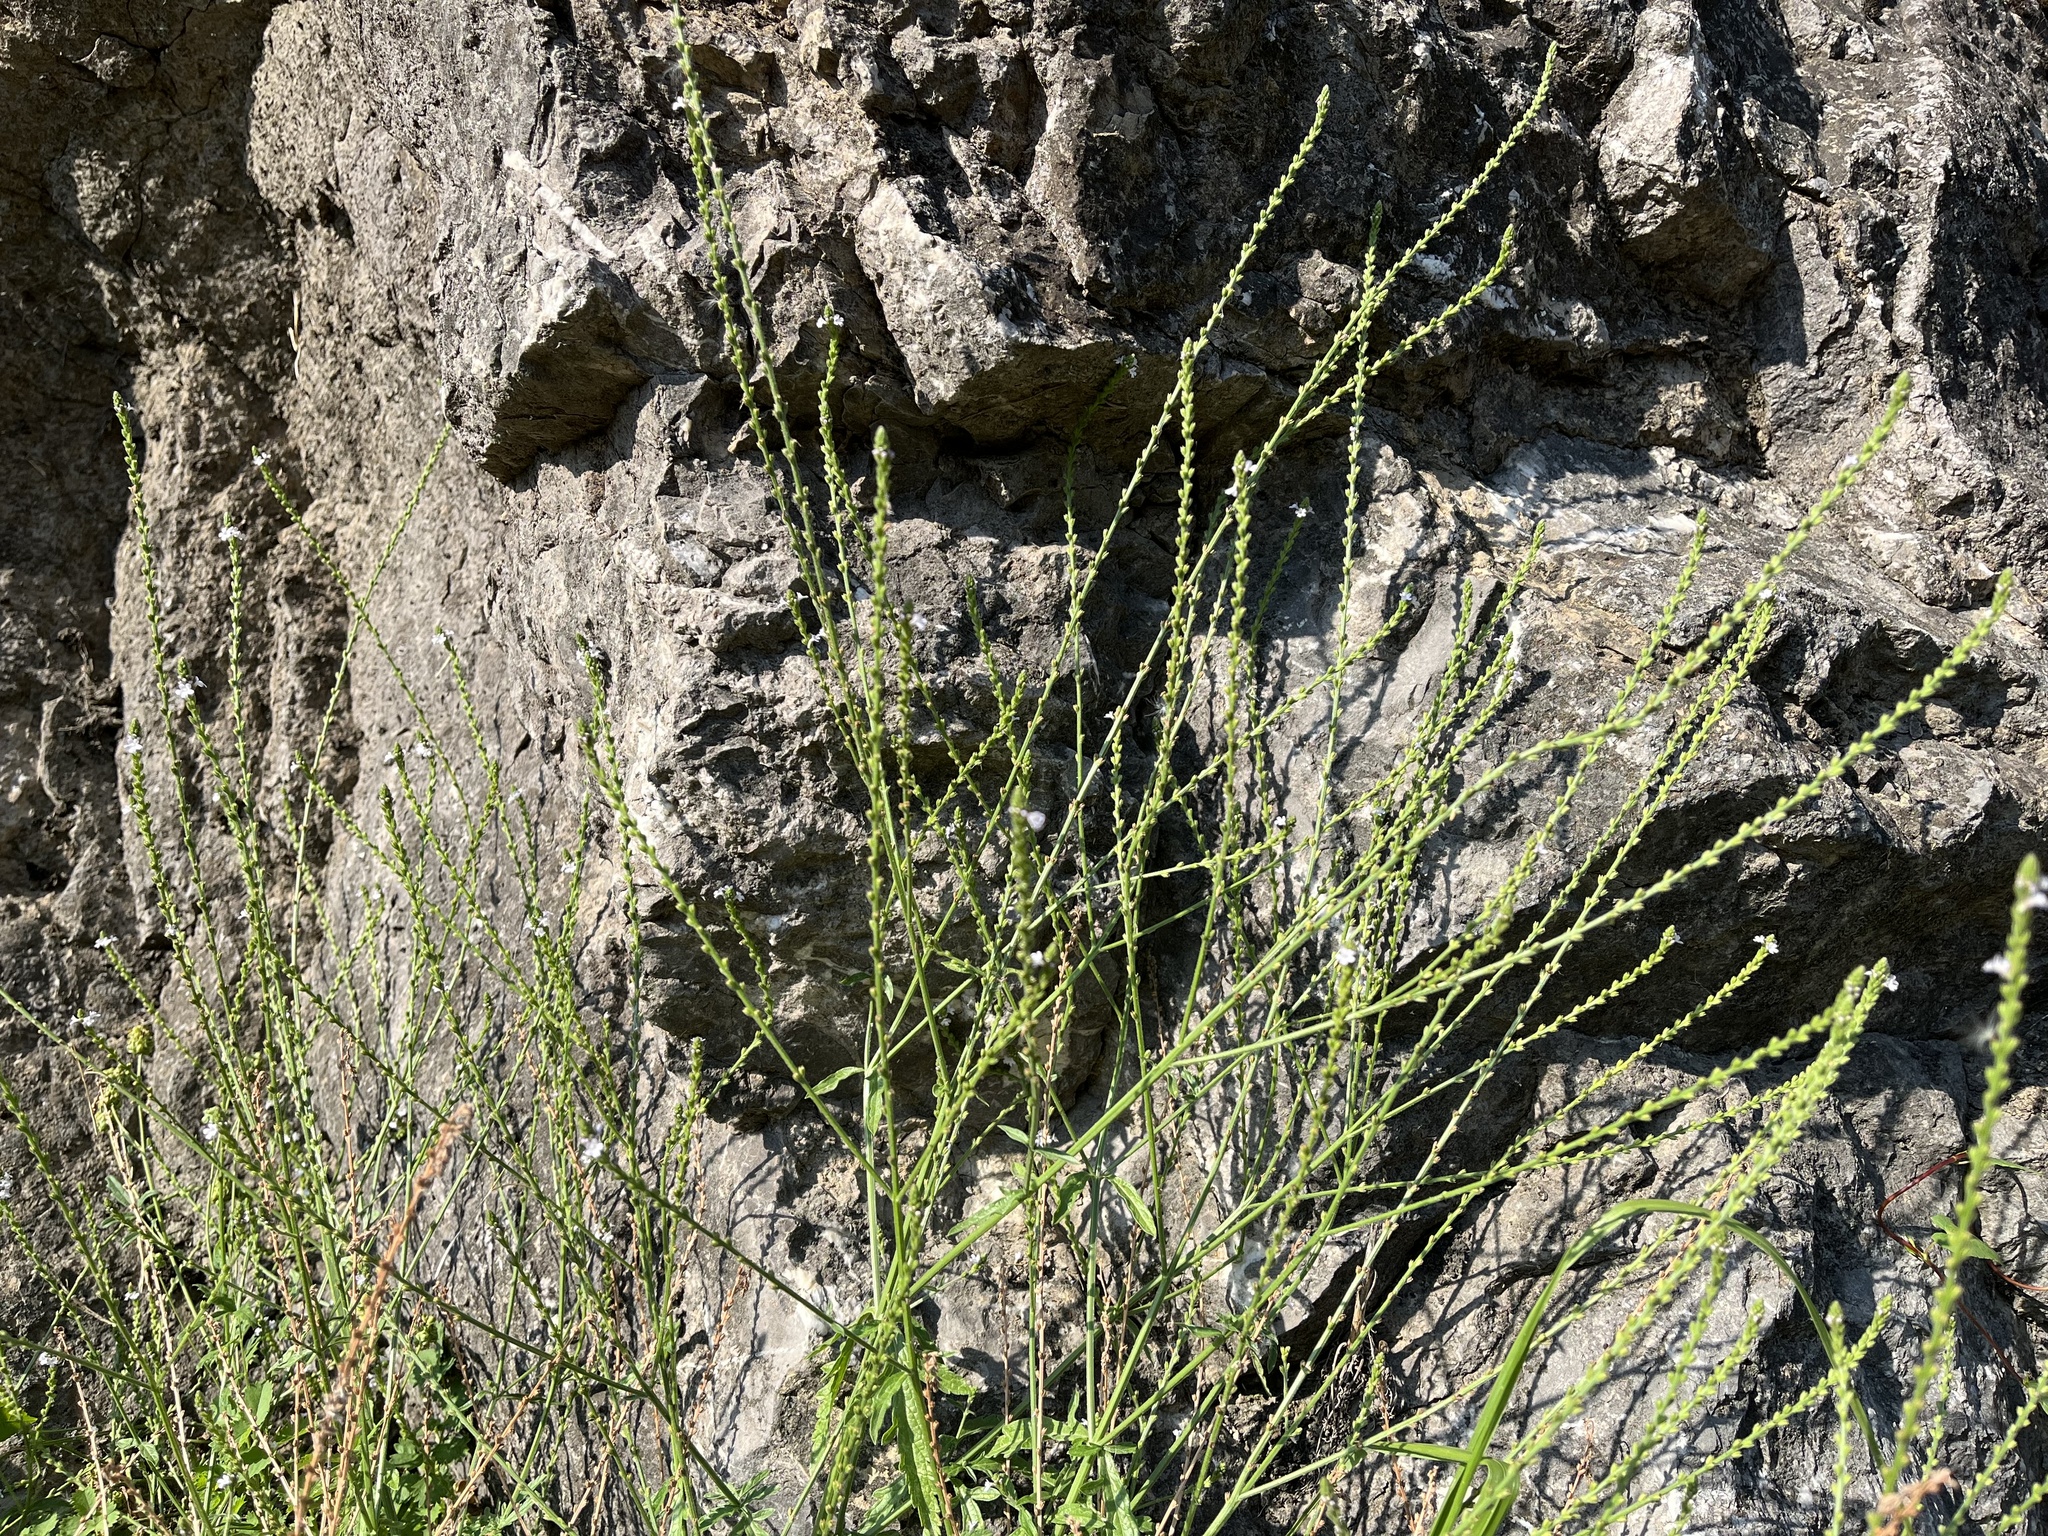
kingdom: Plantae
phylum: Tracheophyta
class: Magnoliopsida
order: Lamiales
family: Verbenaceae
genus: Verbena
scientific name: Verbena officinalis
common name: Vervain
